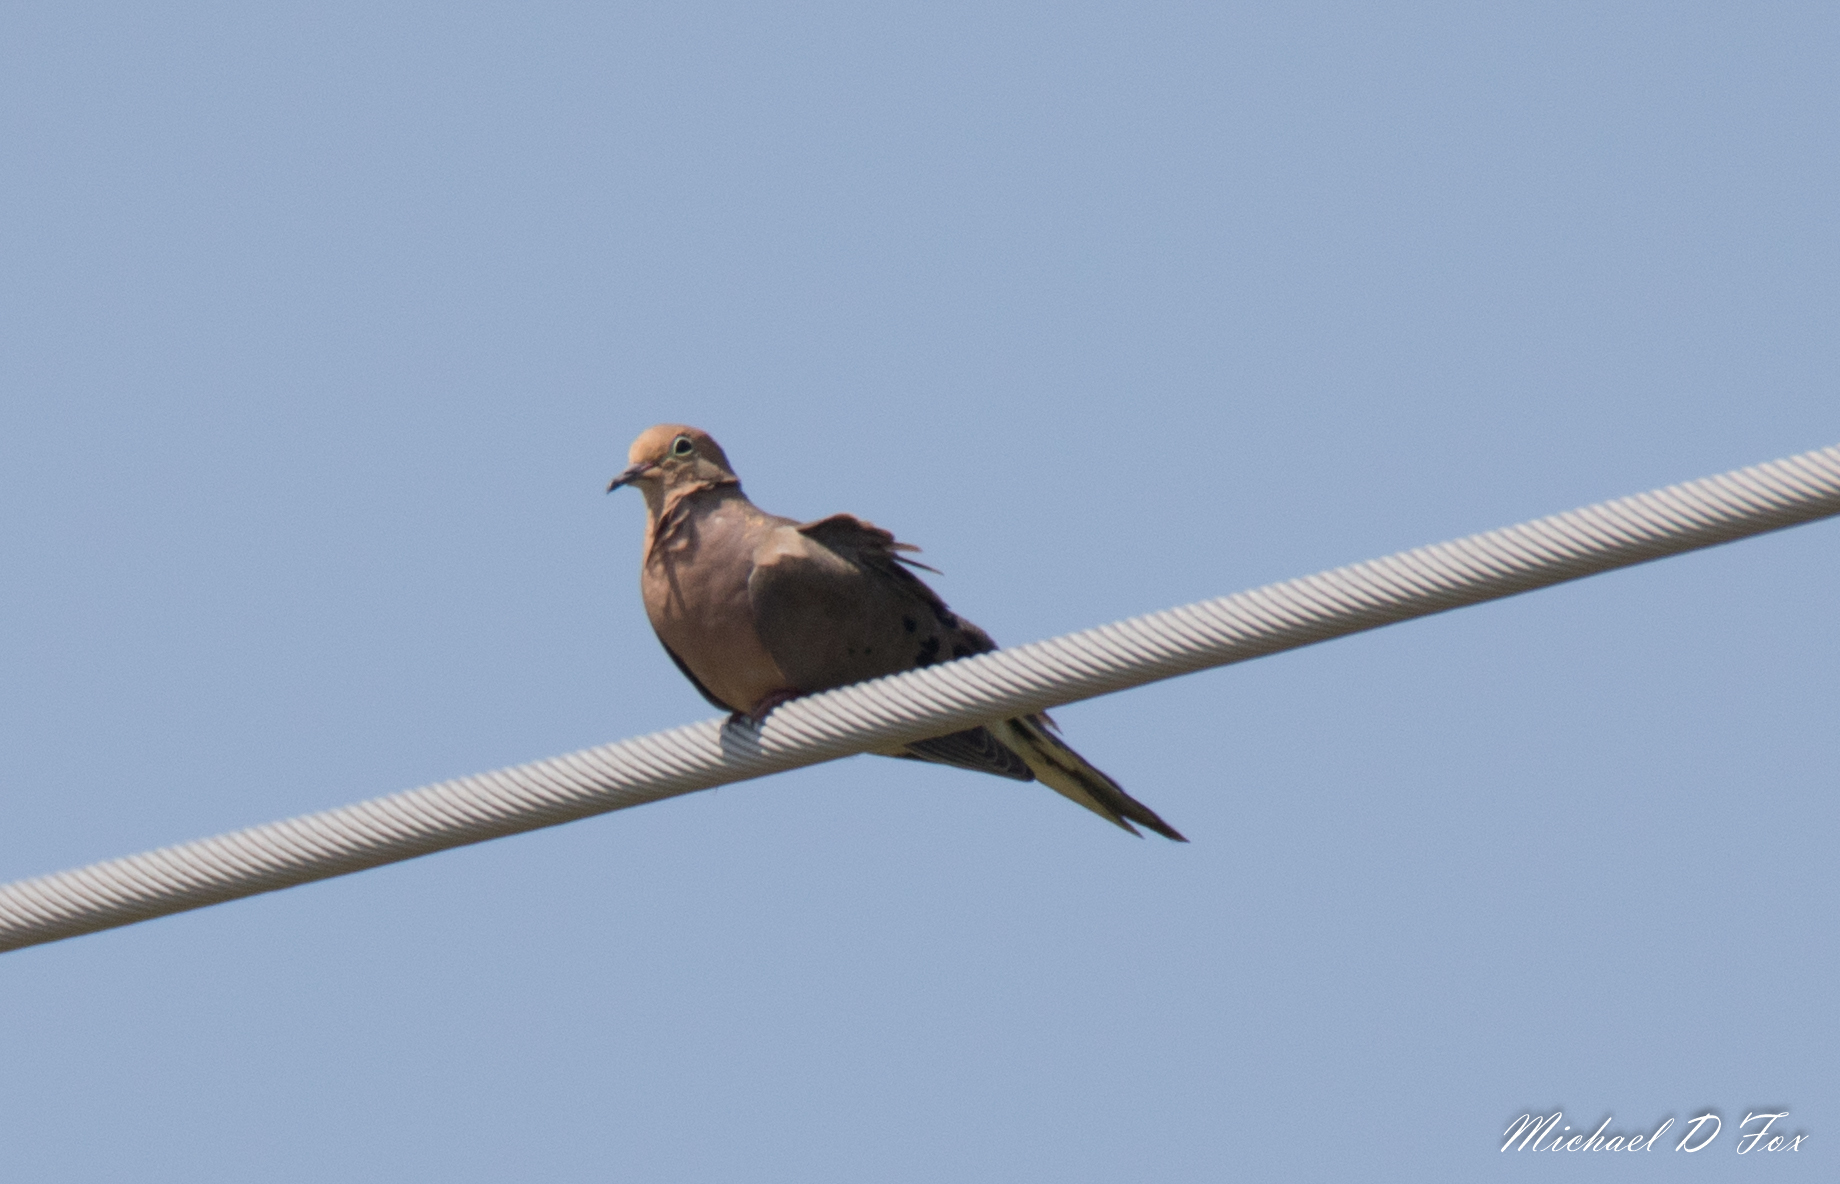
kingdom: Animalia
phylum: Chordata
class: Aves
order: Columbiformes
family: Columbidae
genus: Zenaida
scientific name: Zenaida macroura
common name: Mourning dove
